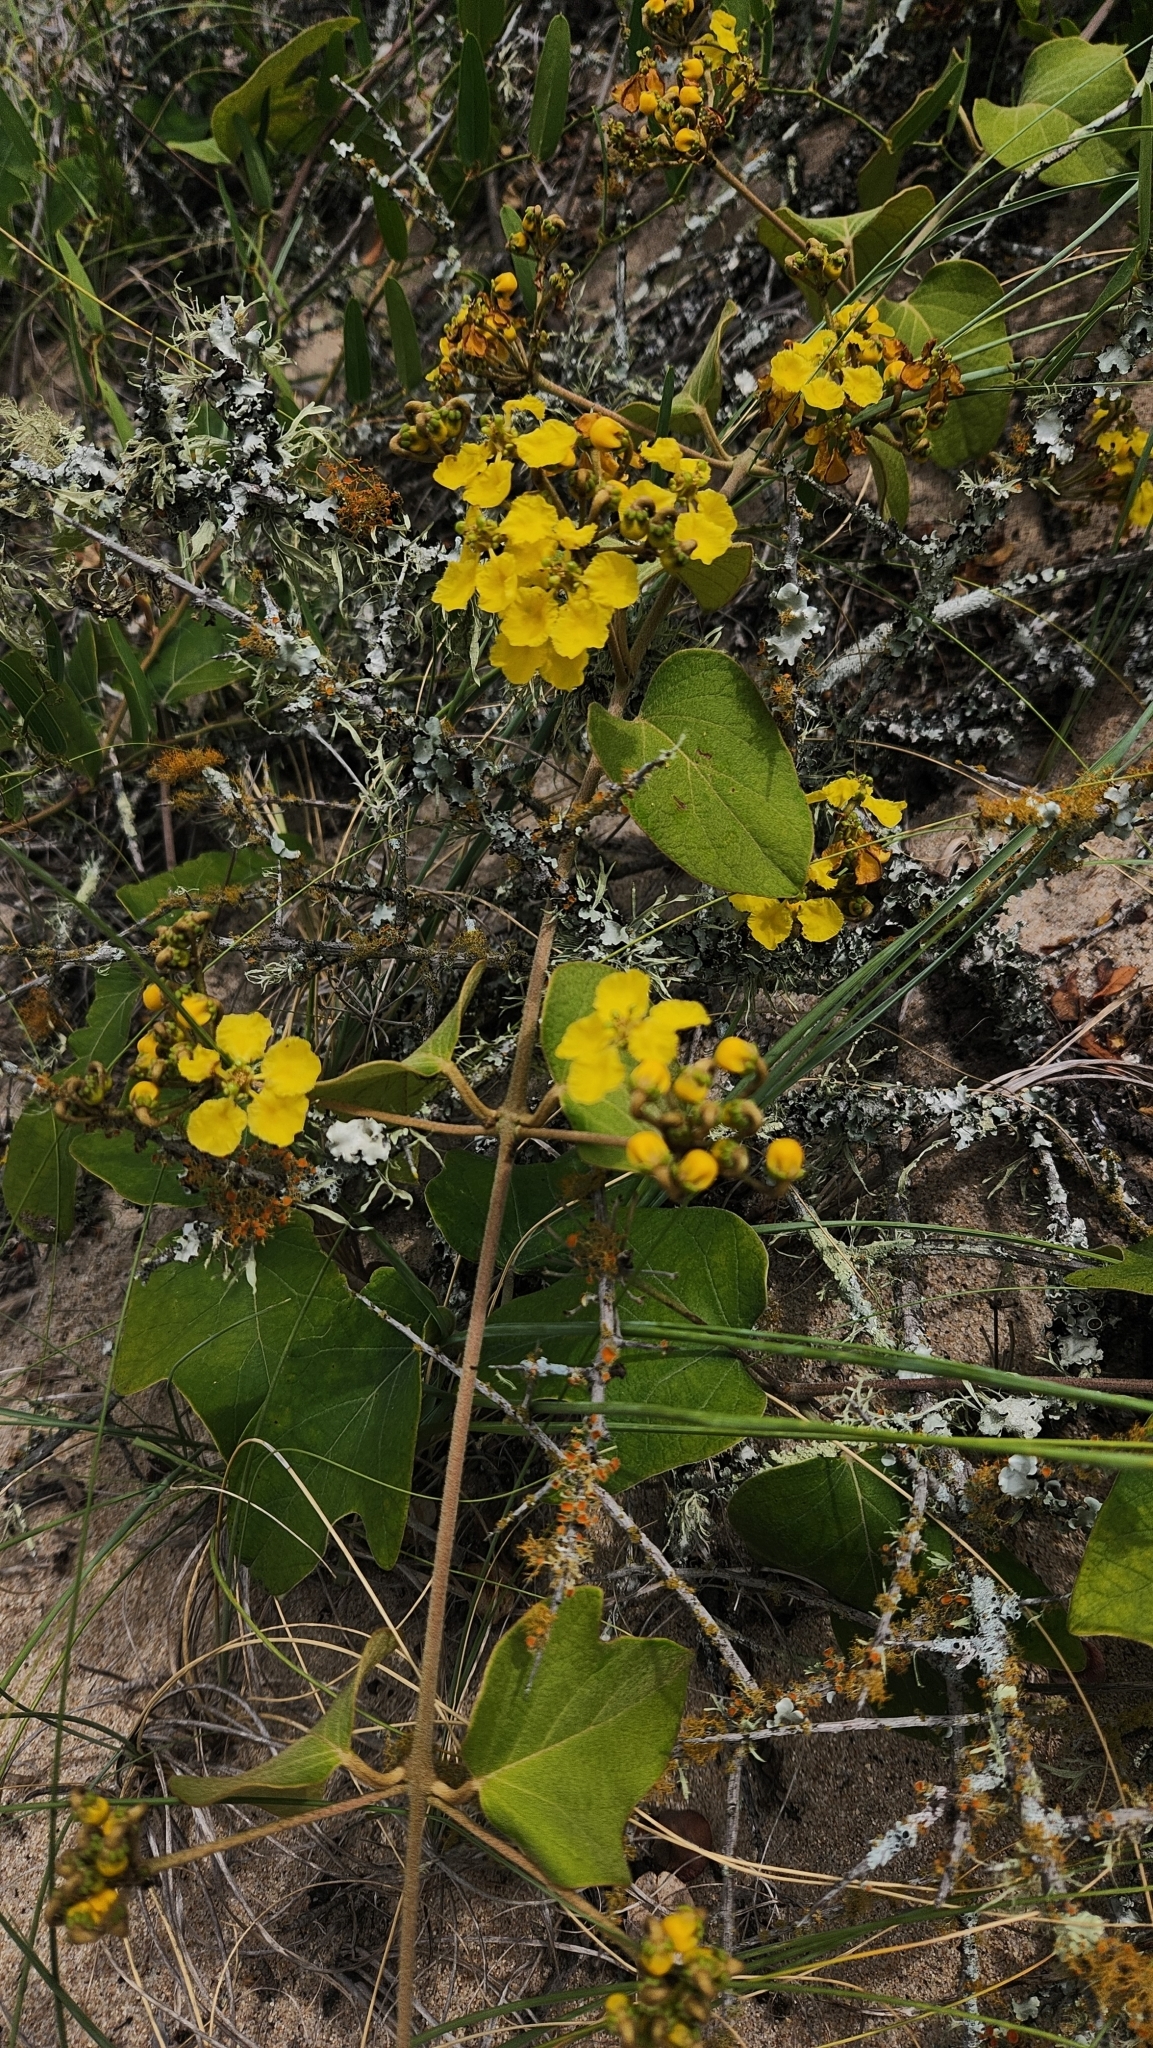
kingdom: Plantae
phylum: Tracheophyta
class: Magnoliopsida
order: Malpighiales
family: Malpighiaceae
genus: Stigmaphyllon
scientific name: Stigmaphyllon bonariense
